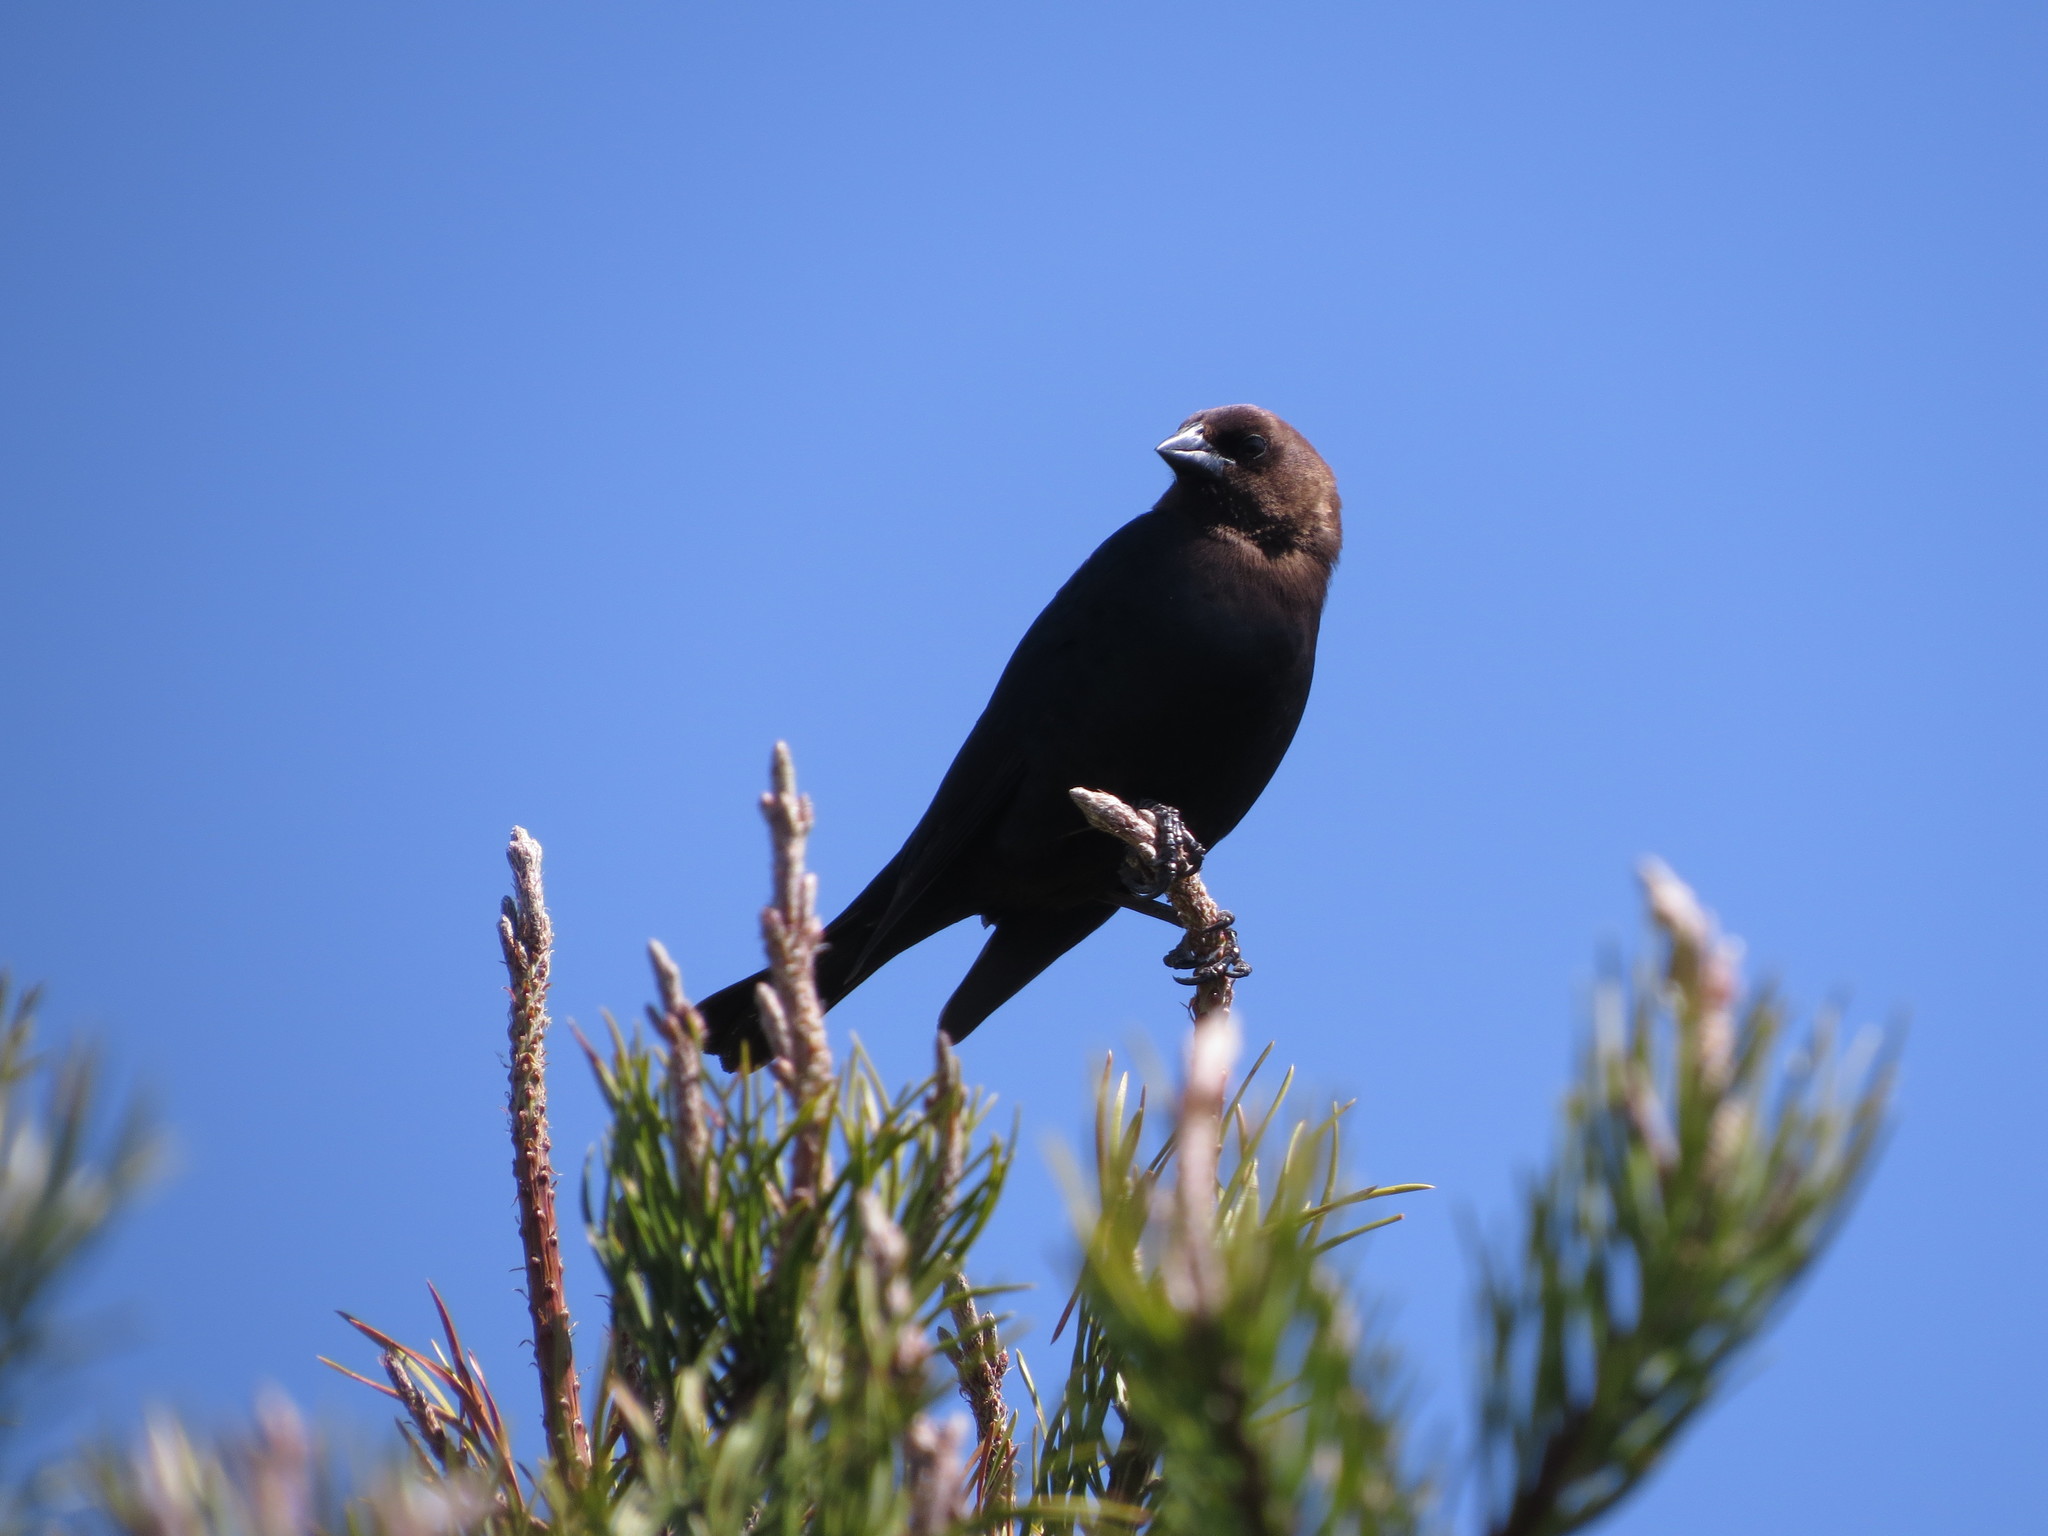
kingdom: Animalia
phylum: Chordata
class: Aves
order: Passeriformes
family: Icteridae
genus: Molothrus
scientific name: Molothrus ater
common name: Brown-headed cowbird
